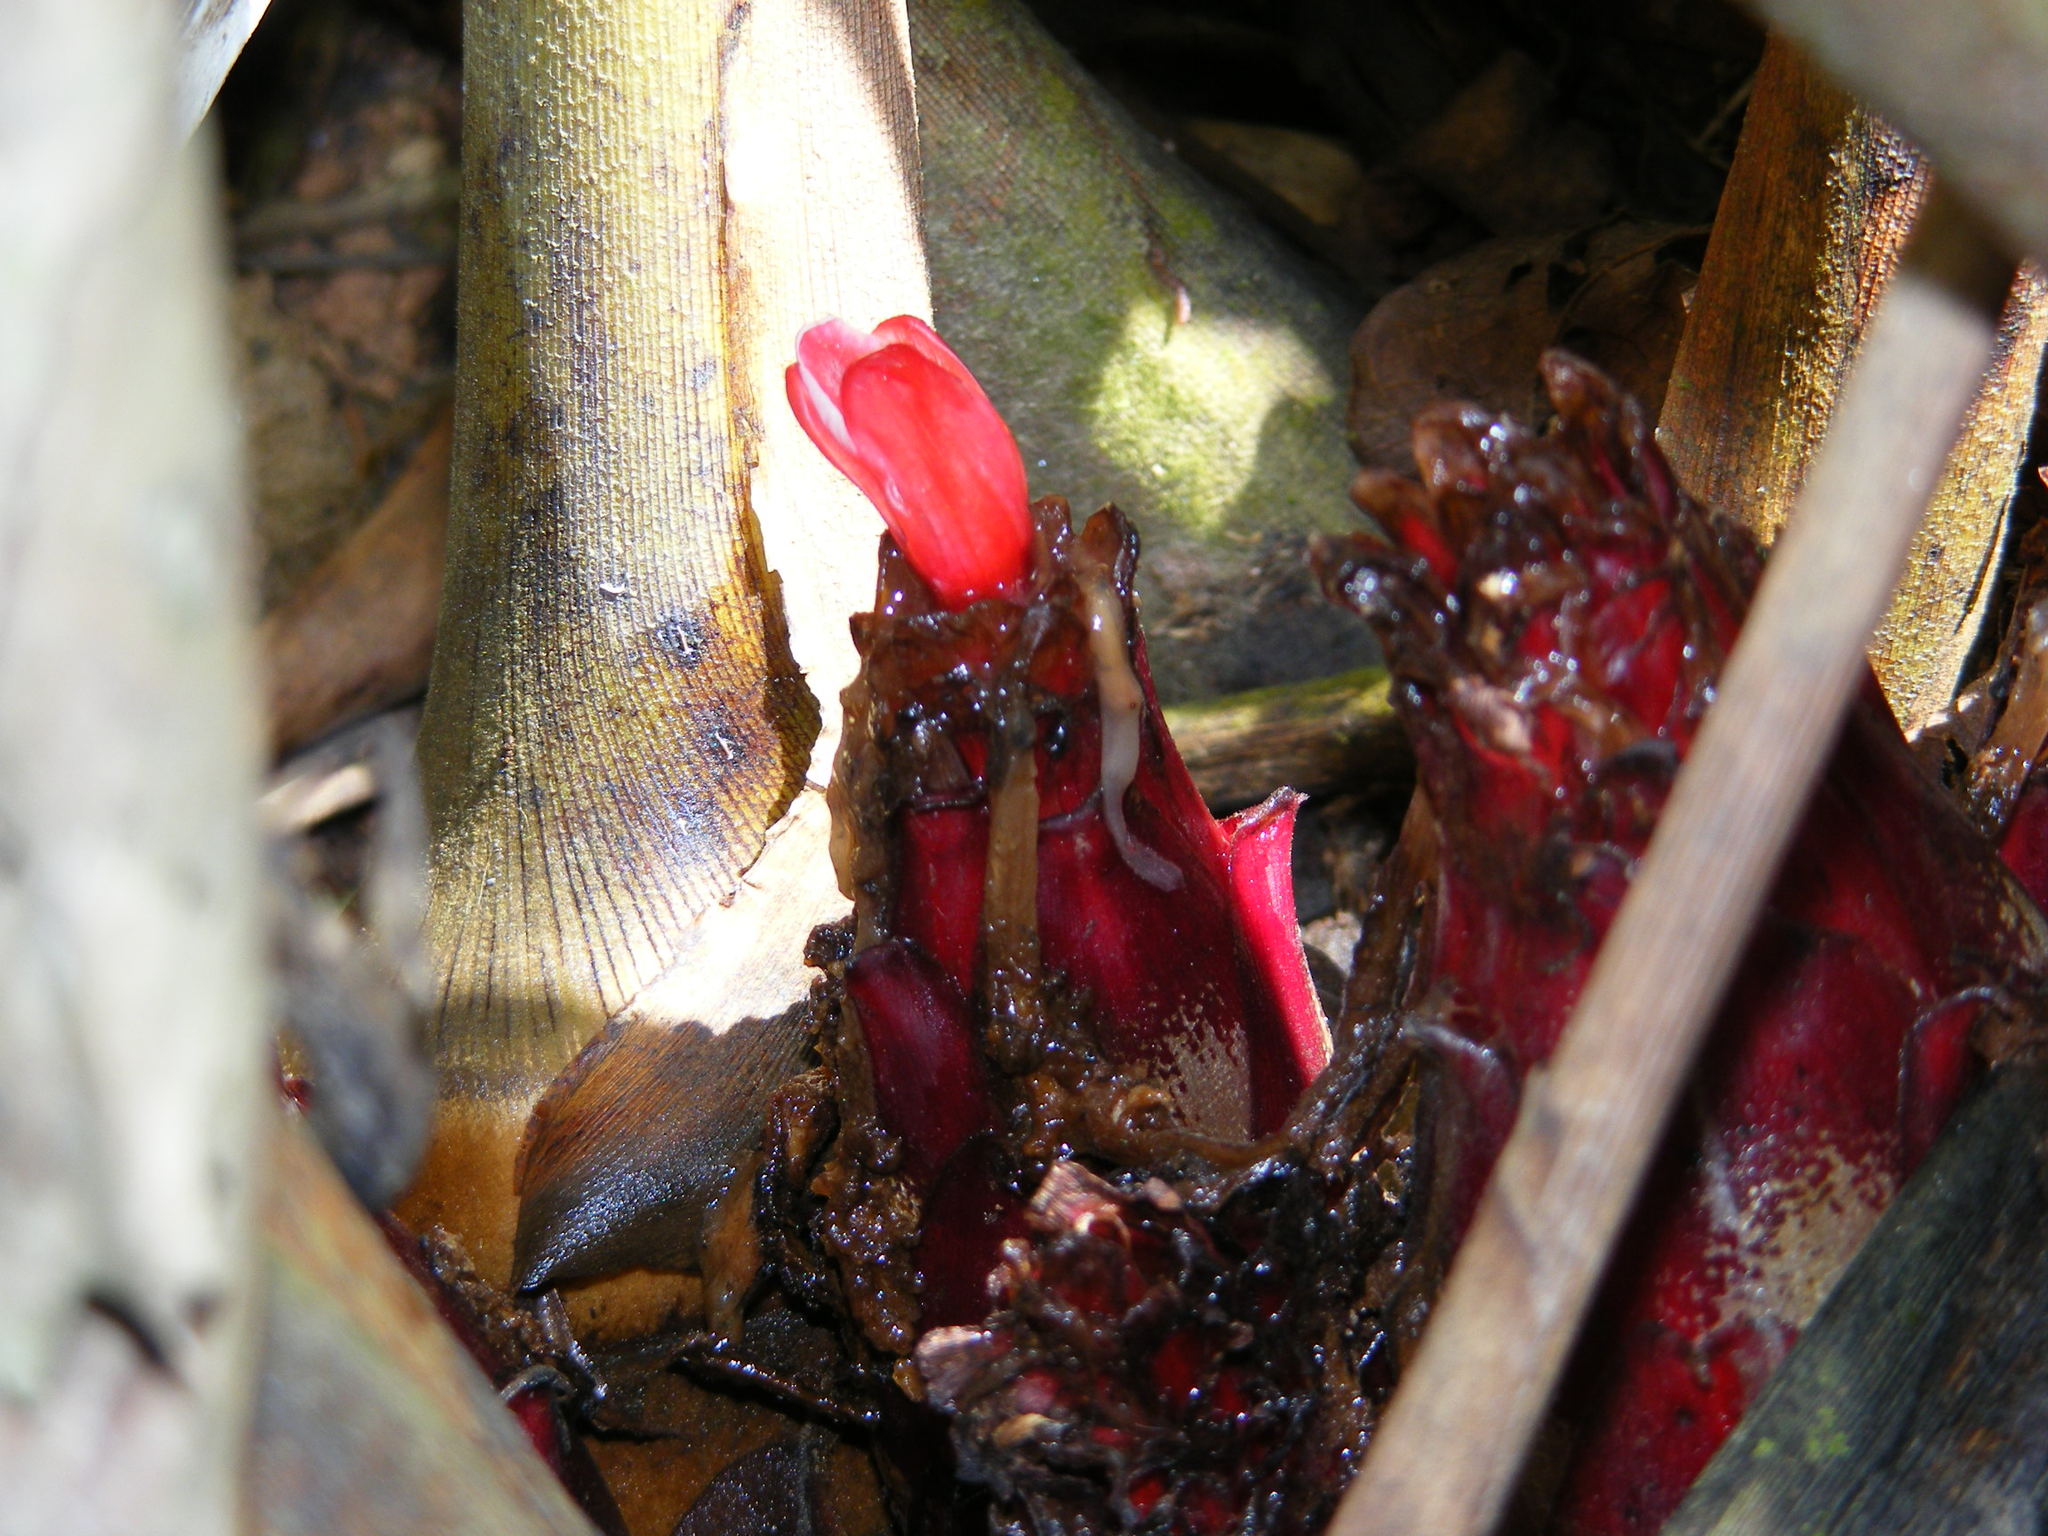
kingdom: Plantae
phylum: Tracheophyta
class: Liliopsida
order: Zingiberales
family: Zingiberaceae
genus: Hornstedtia
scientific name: Hornstedtia scottiana
